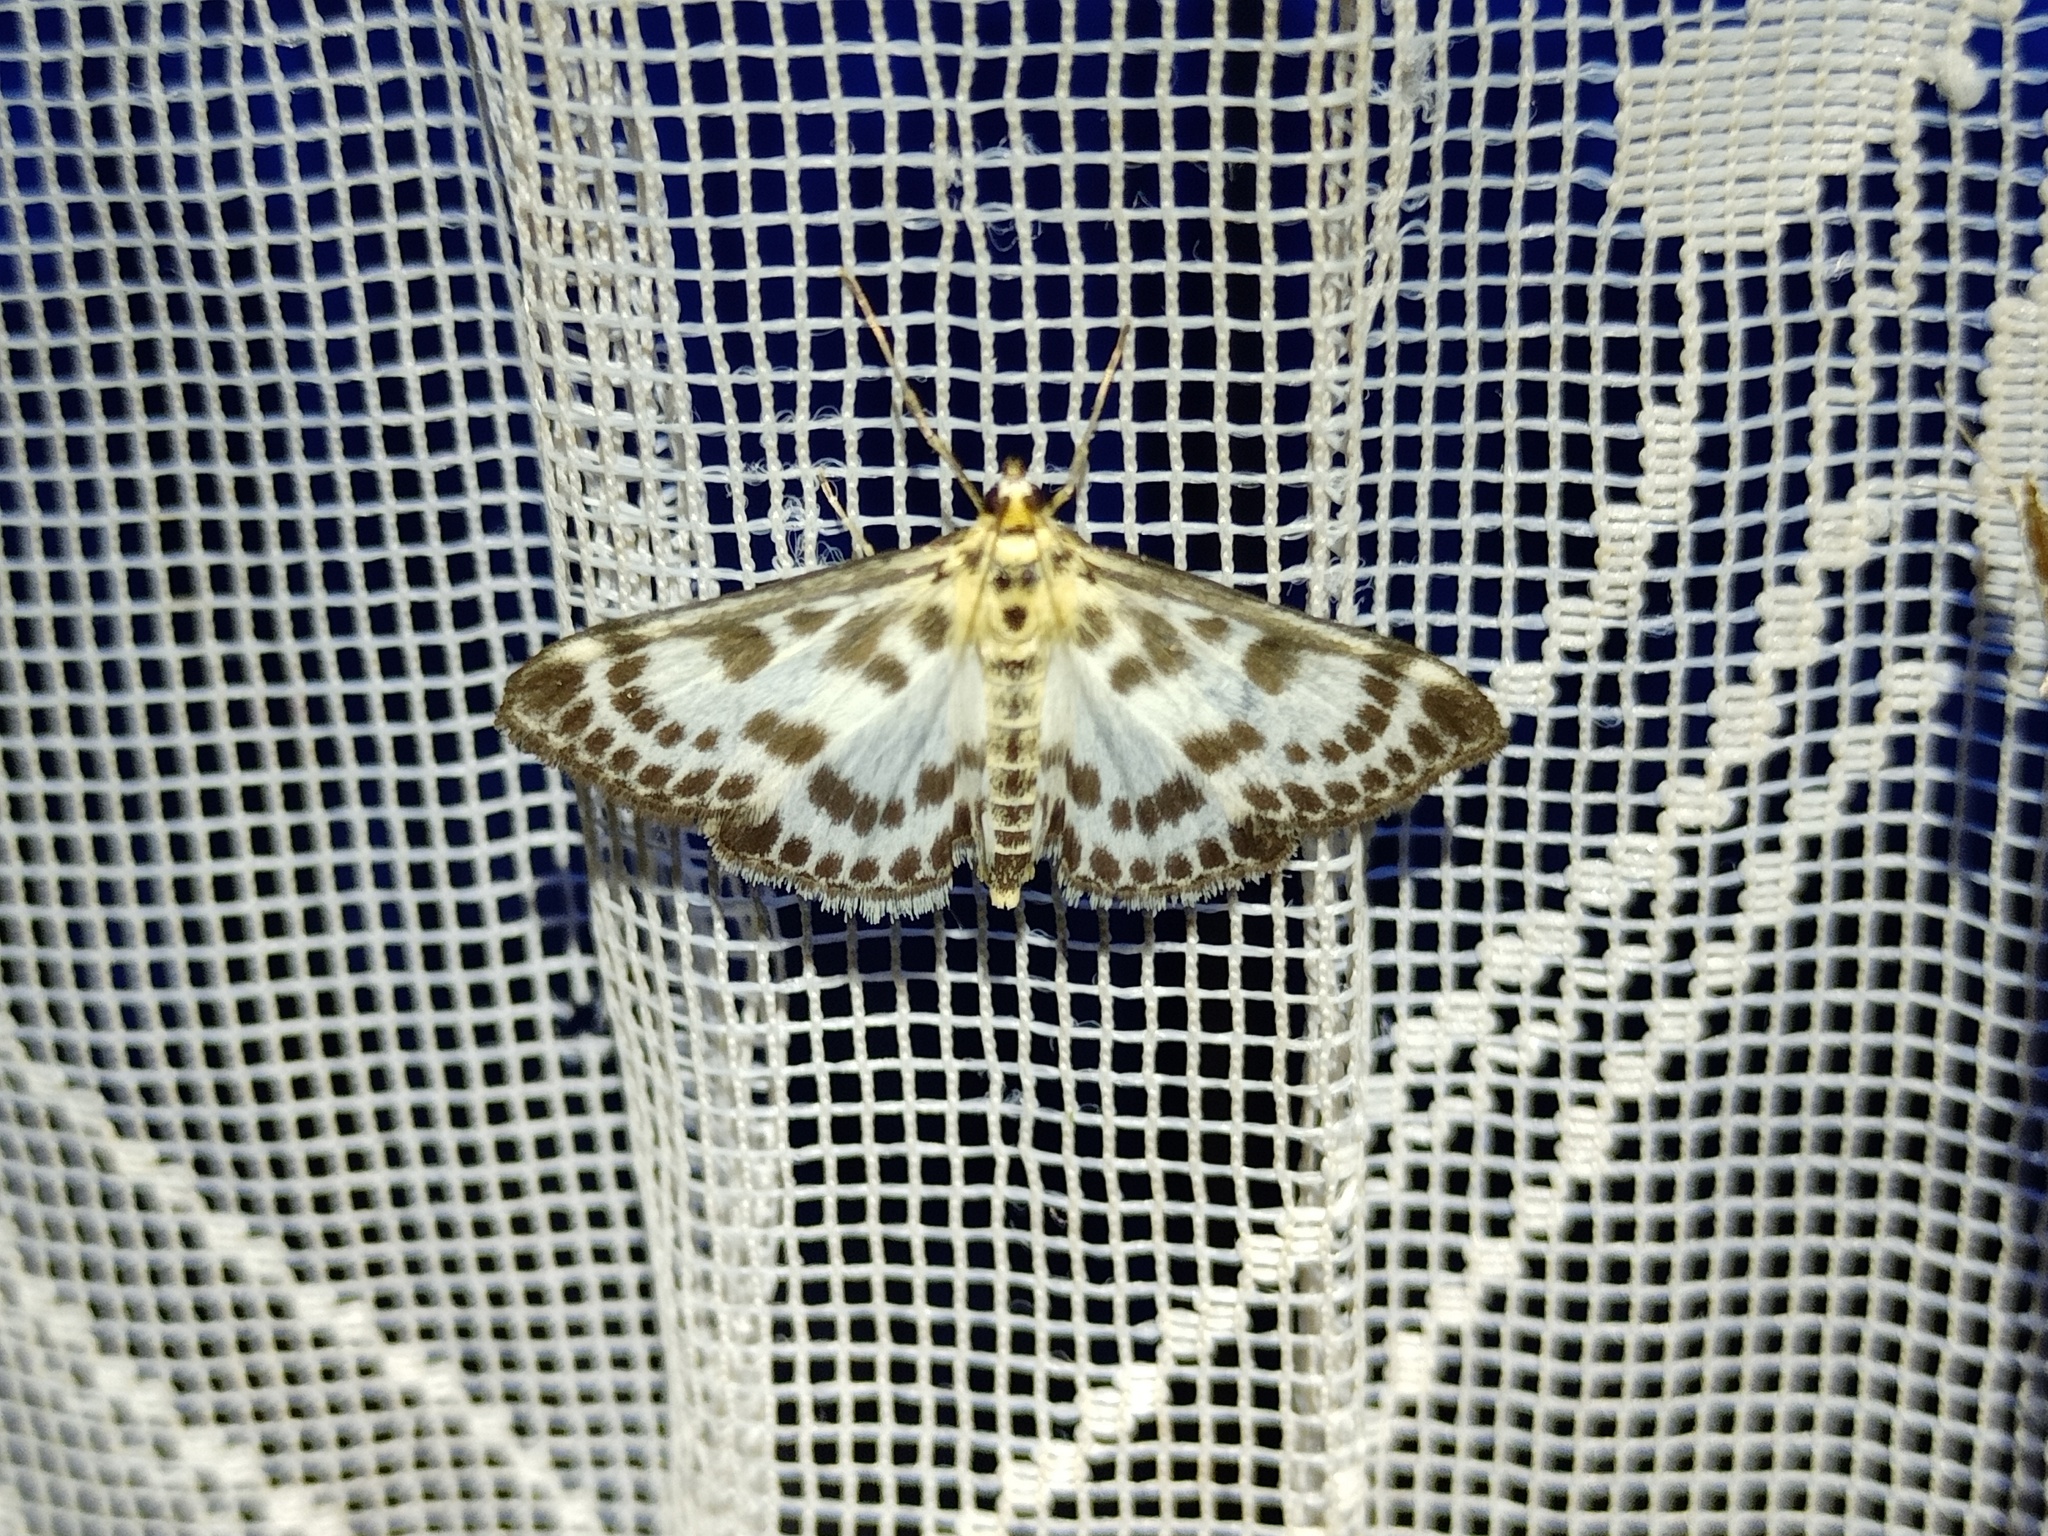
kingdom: Animalia
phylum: Arthropoda
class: Insecta
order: Lepidoptera
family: Crambidae
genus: Anania
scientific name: Anania hortulata
